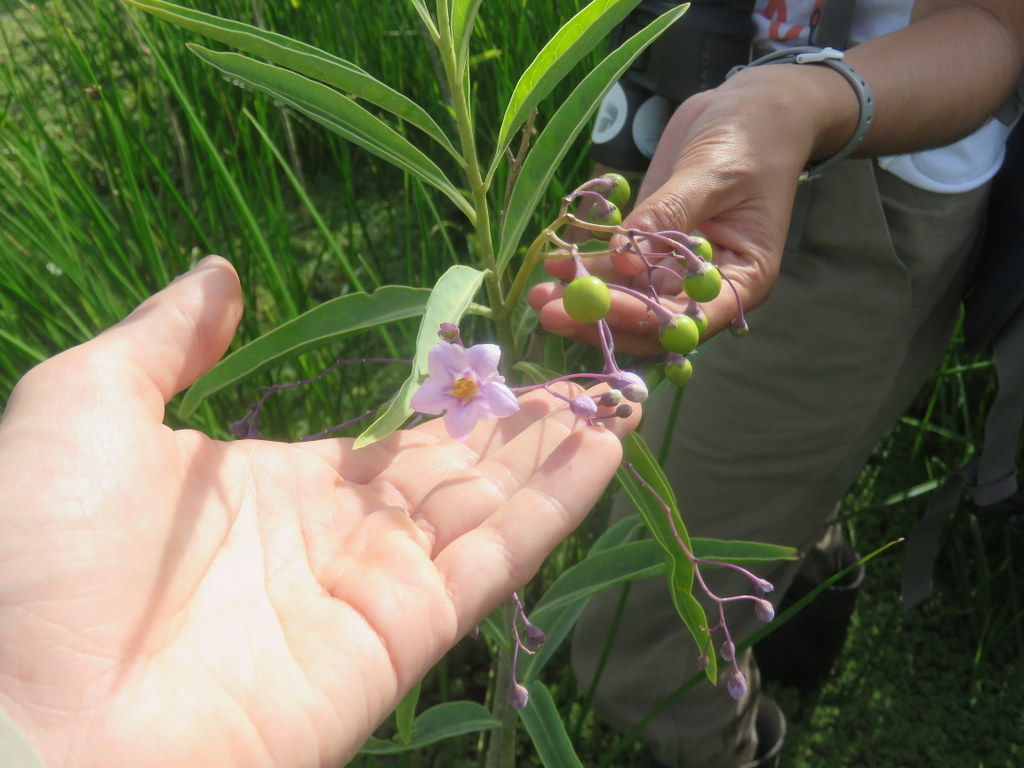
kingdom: Plantae
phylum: Tracheophyta
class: Magnoliopsida
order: Solanales
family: Solanaceae
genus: Solanum
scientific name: Solanum glaucophyllum
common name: Waxyleaf nightshade
